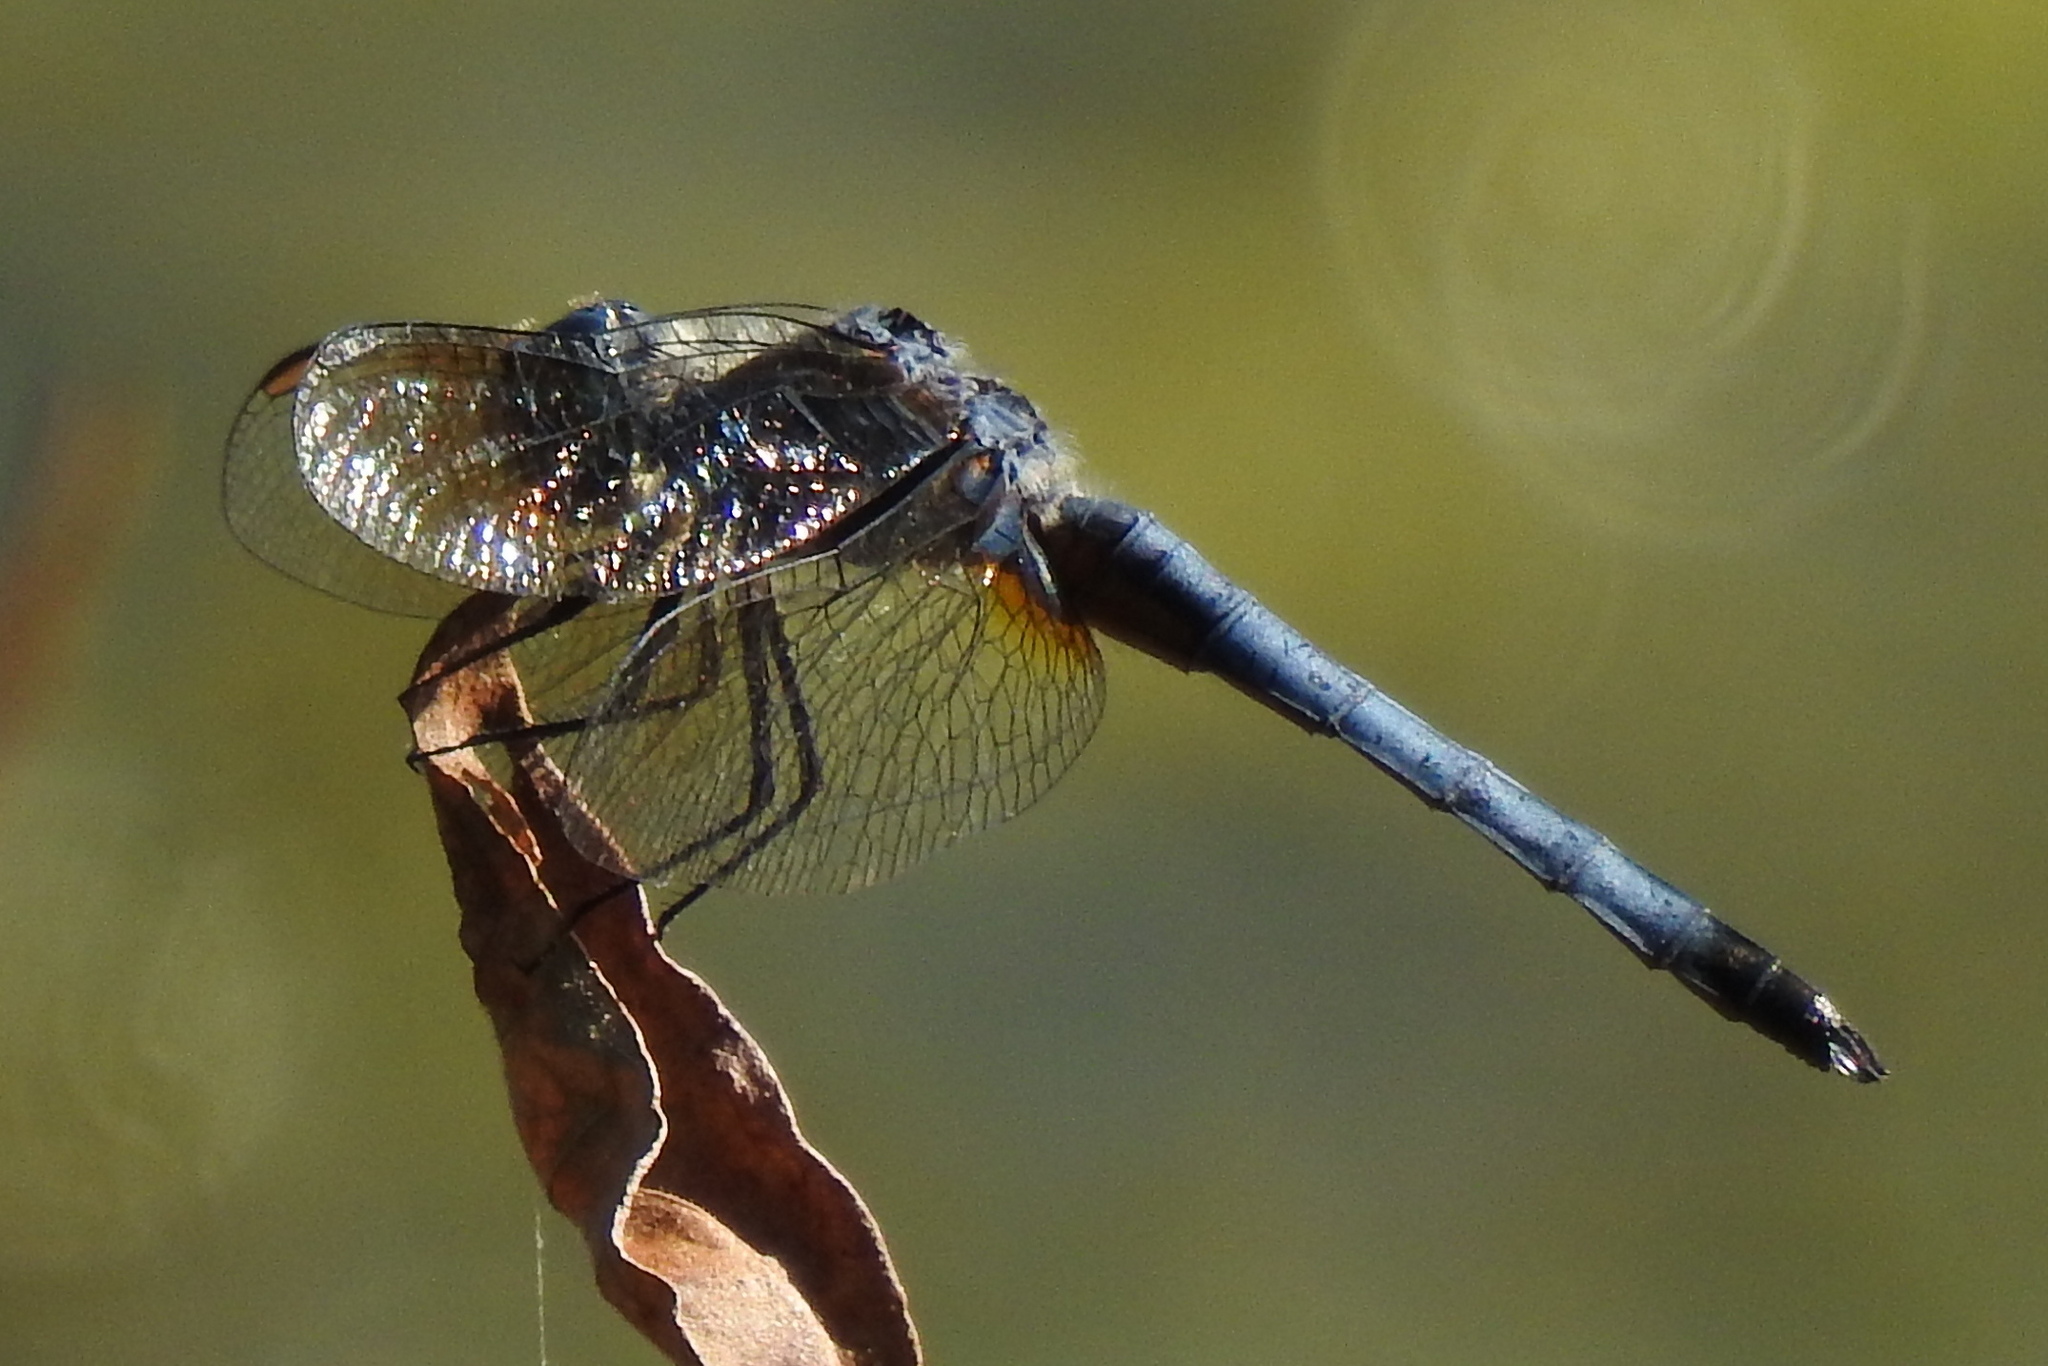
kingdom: Animalia
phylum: Arthropoda
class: Insecta
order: Odonata
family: Libellulidae
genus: Pachydiplax
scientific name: Pachydiplax longipennis
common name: Blue dasher
